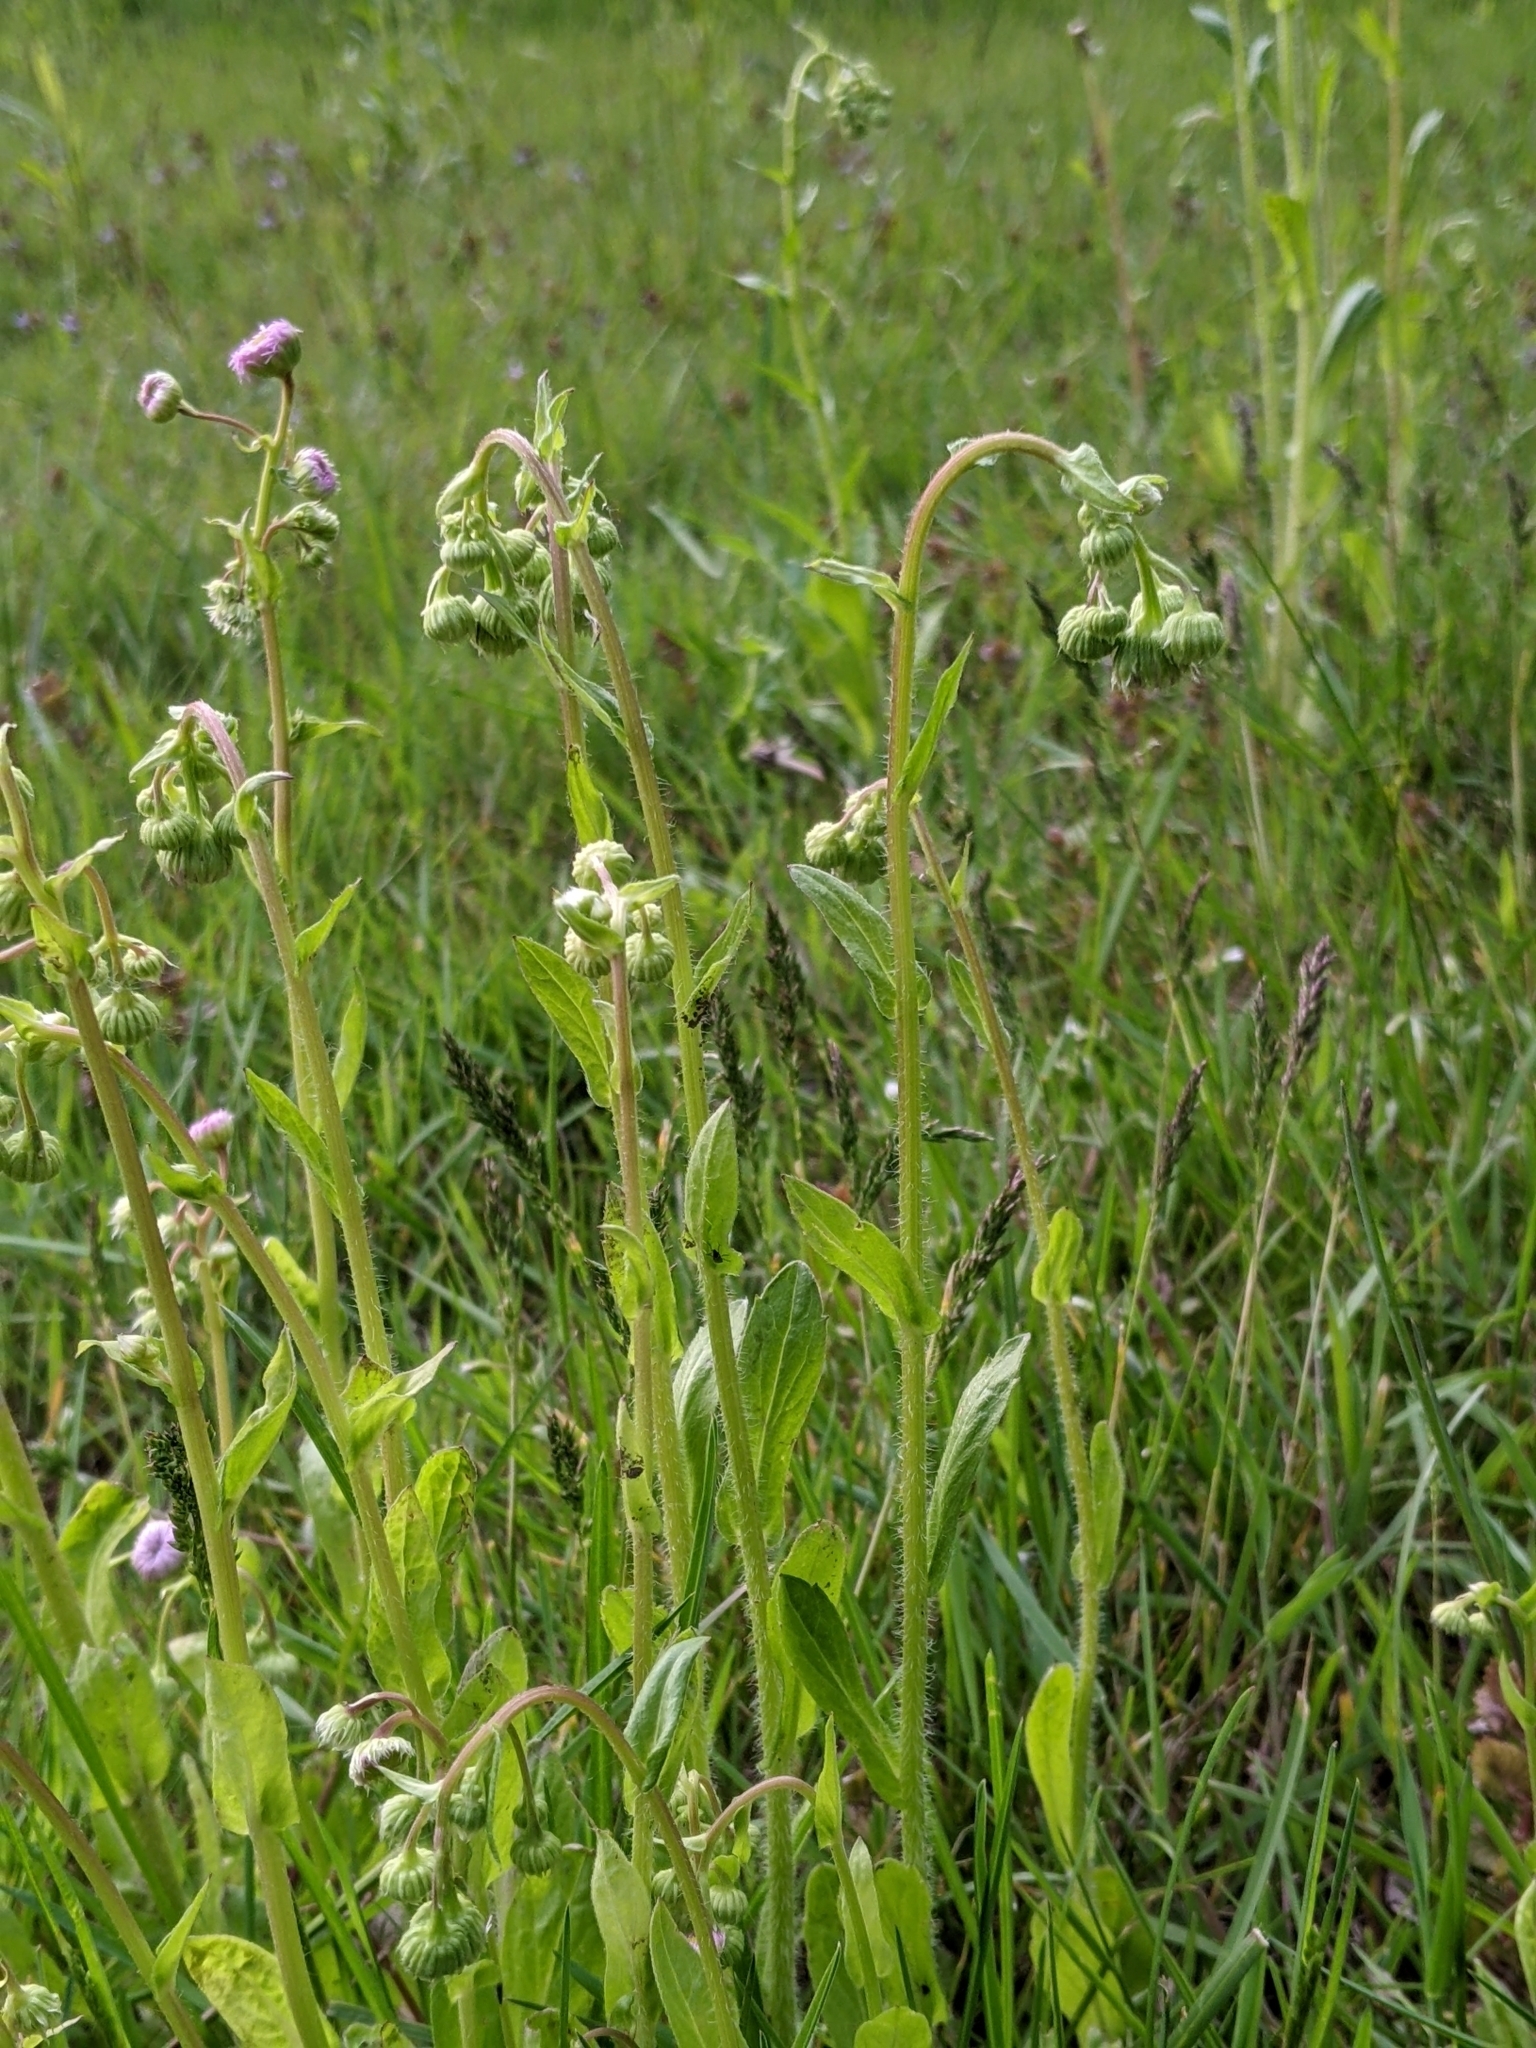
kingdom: Plantae
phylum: Tracheophyta
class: Magnoliopsida
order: Asterales
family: Asteraceae
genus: Erigeron
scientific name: Erigeron philadelphicus
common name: Robin's-plantain
